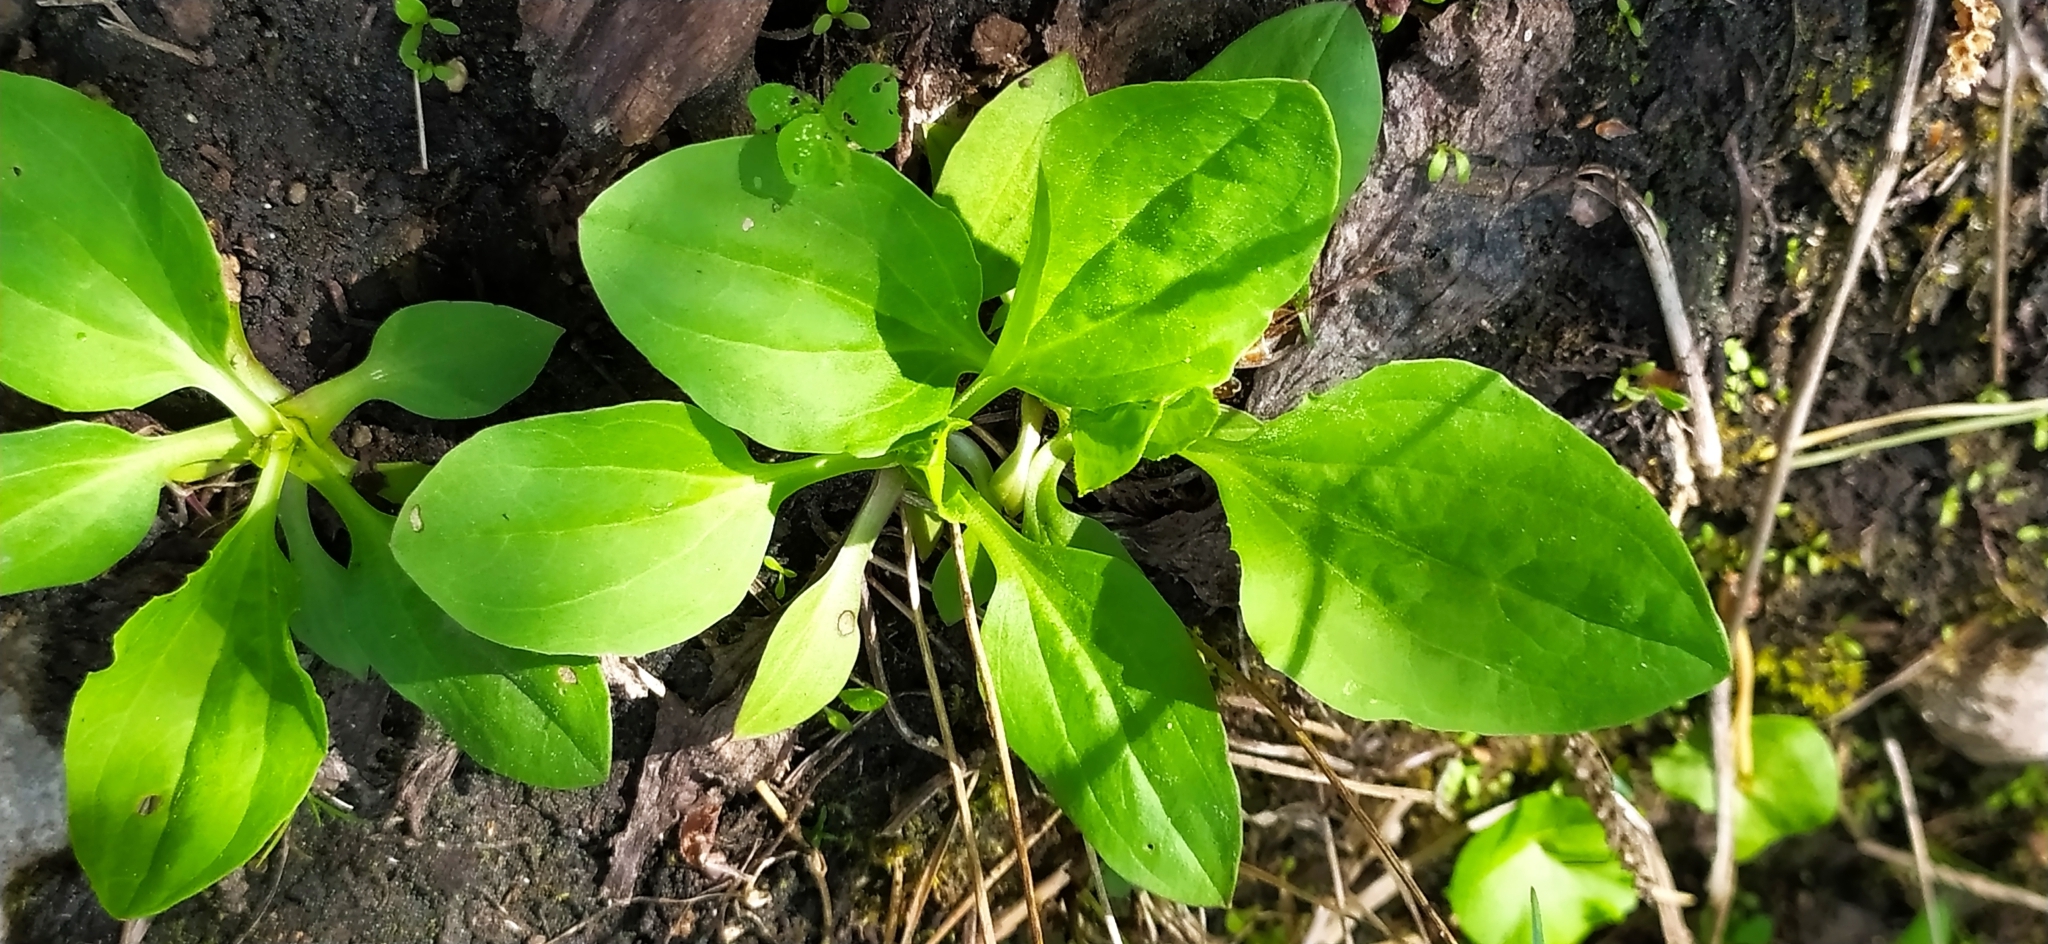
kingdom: Plantae
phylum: Tracheophyta
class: Magnoliopsida
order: Lamiales
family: Plantaginaceae
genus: Plantago
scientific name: Plantago major
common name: Common plantain
